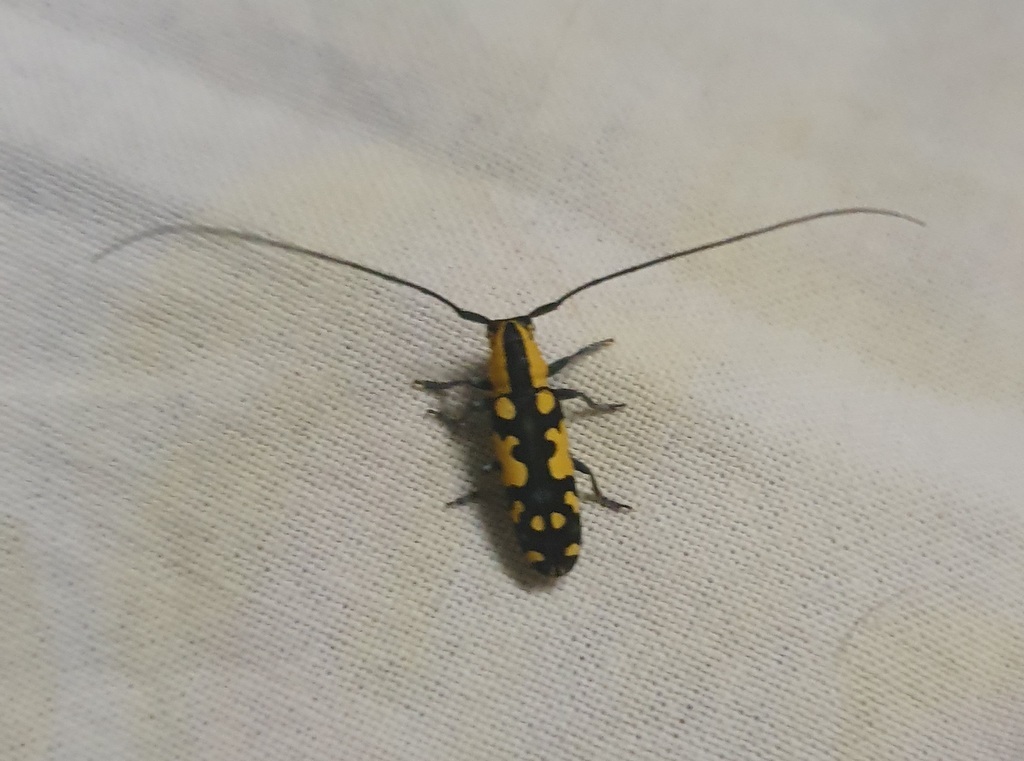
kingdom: Animalia
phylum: Arthropoda
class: Insecta
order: Coleoptera
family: Cerambycidae
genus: Tragiscoschema
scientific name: Tragiscoschema bertolonii
